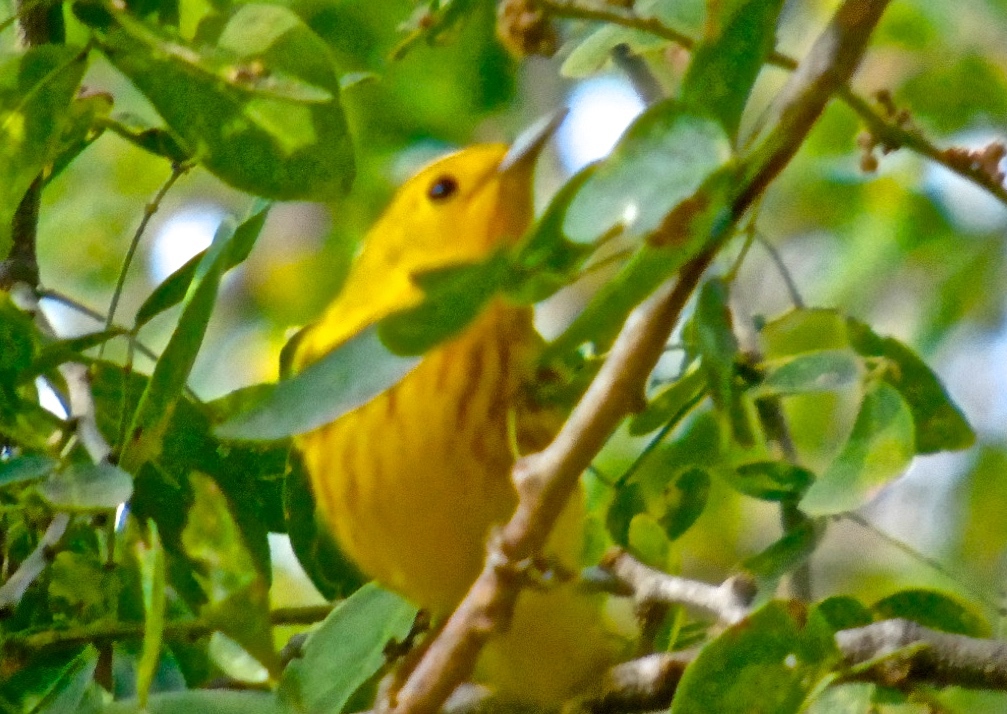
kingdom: Animalia
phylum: Chordata
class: Aves
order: Passeriformes
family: Parulidae
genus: Setophaga
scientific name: Setophaga petechia
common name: Yellow warbler
